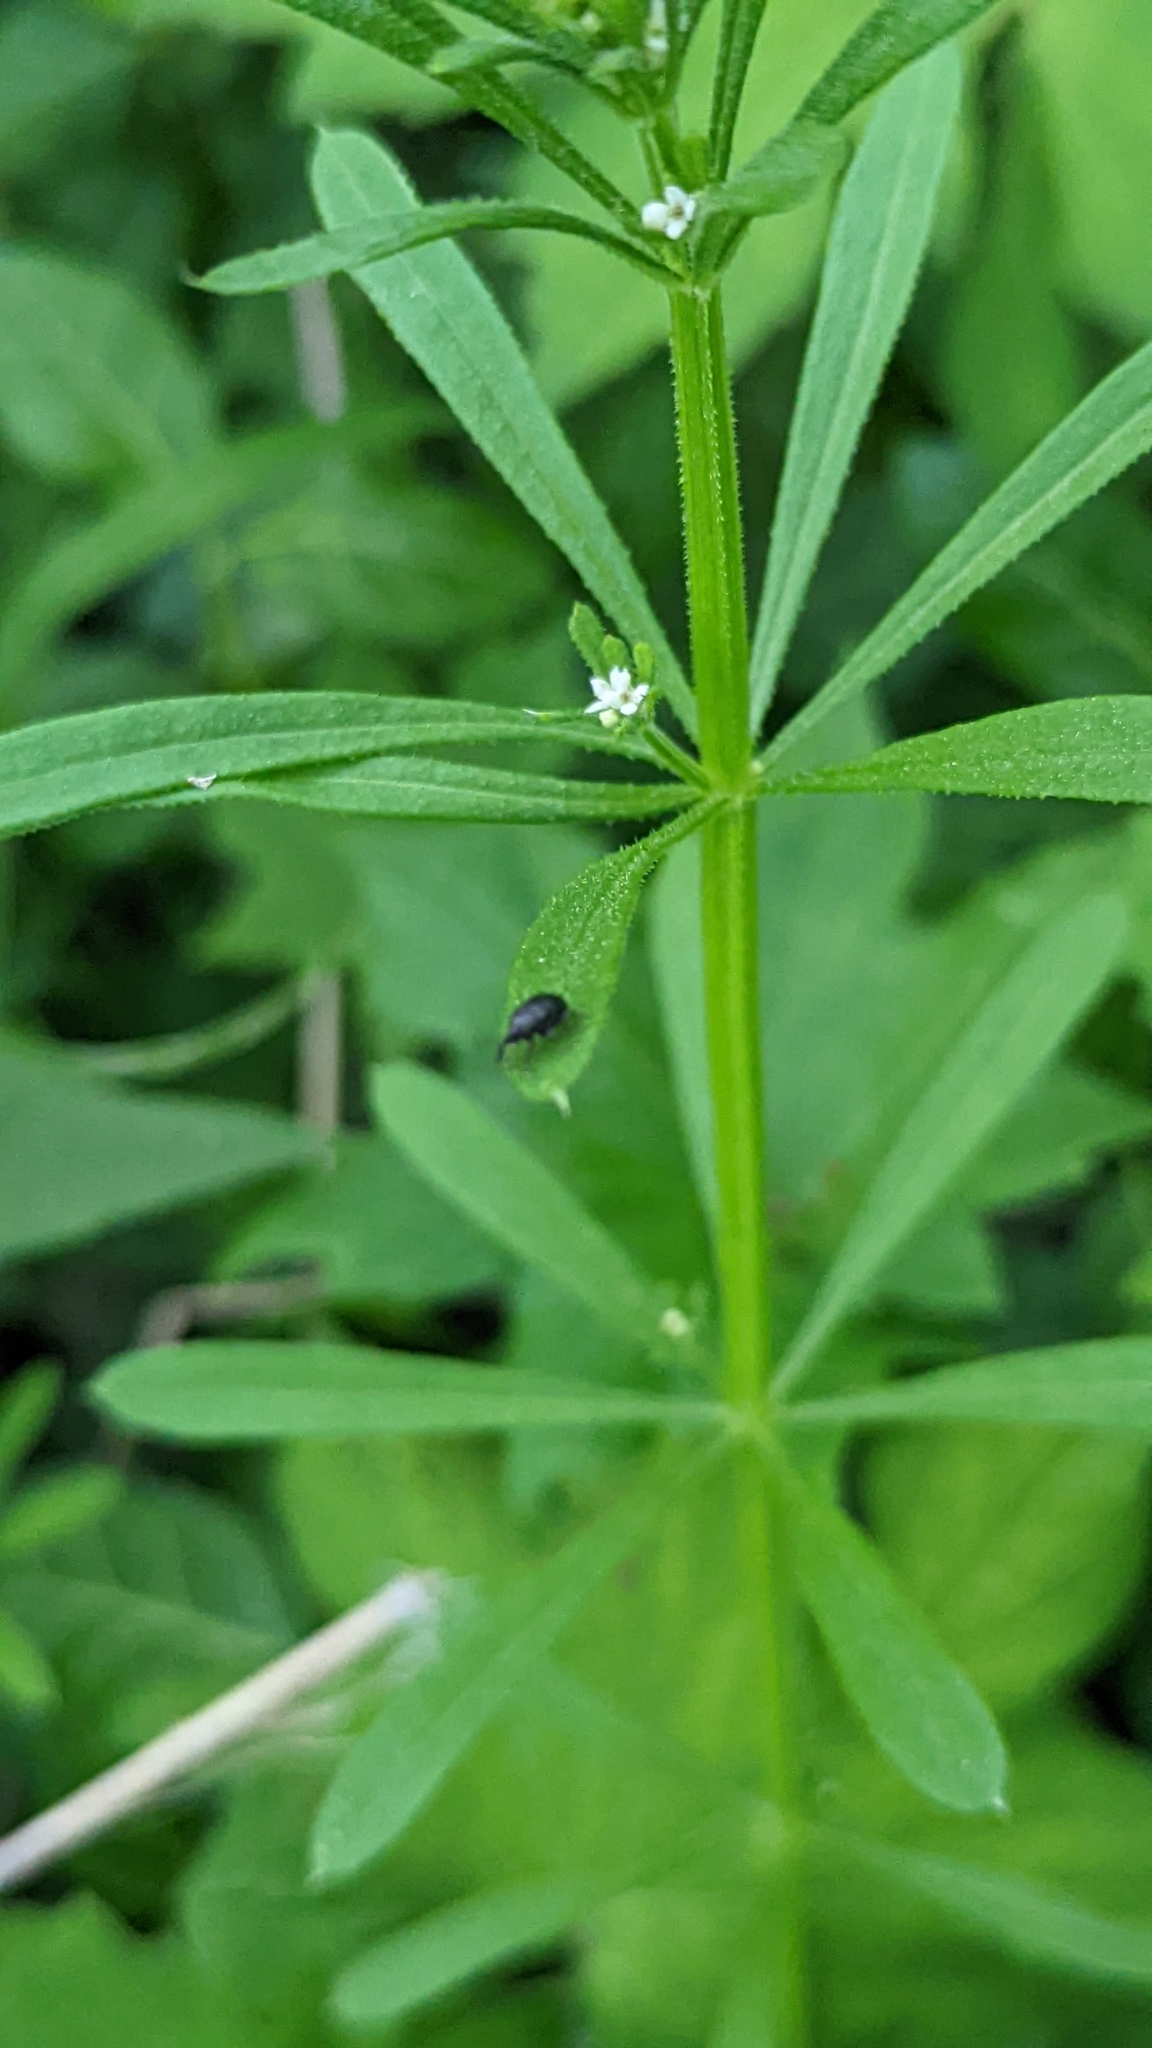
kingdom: Plantae
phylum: Tracheophyta
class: Magnoliopsida
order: Gentianales
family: Rubiaceae
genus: Galium
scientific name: Galium aparine
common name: Cleavers
